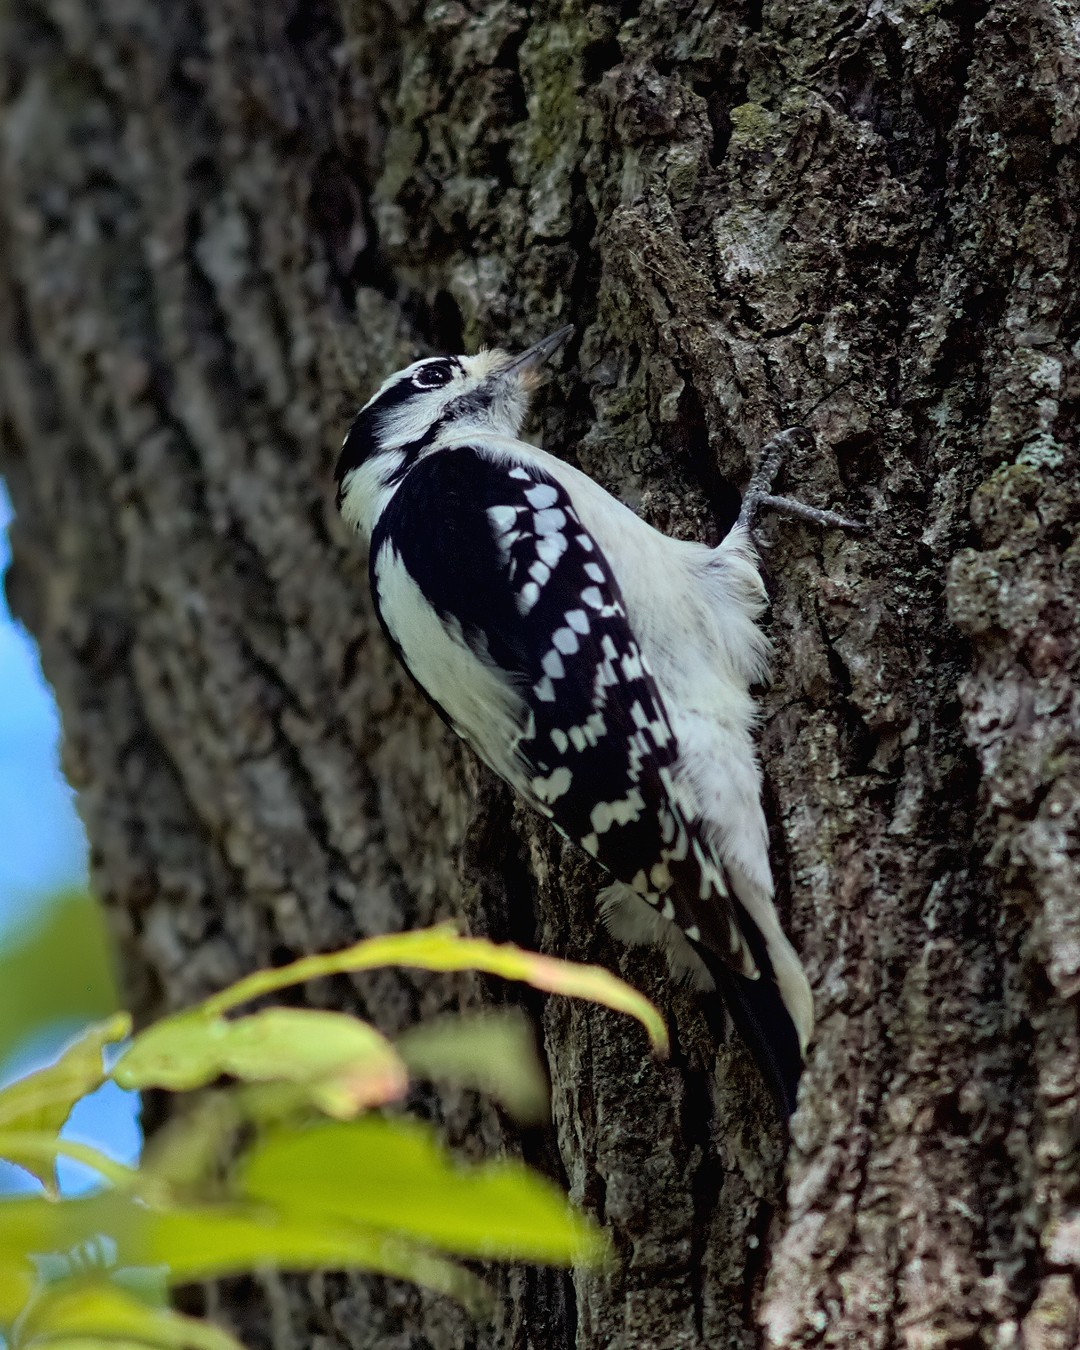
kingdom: Animalia
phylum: Chordata
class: Aves
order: Piciformes
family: Picidae
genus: Dryobates
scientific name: Dryobates pubescens
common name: Downy woodpecker
